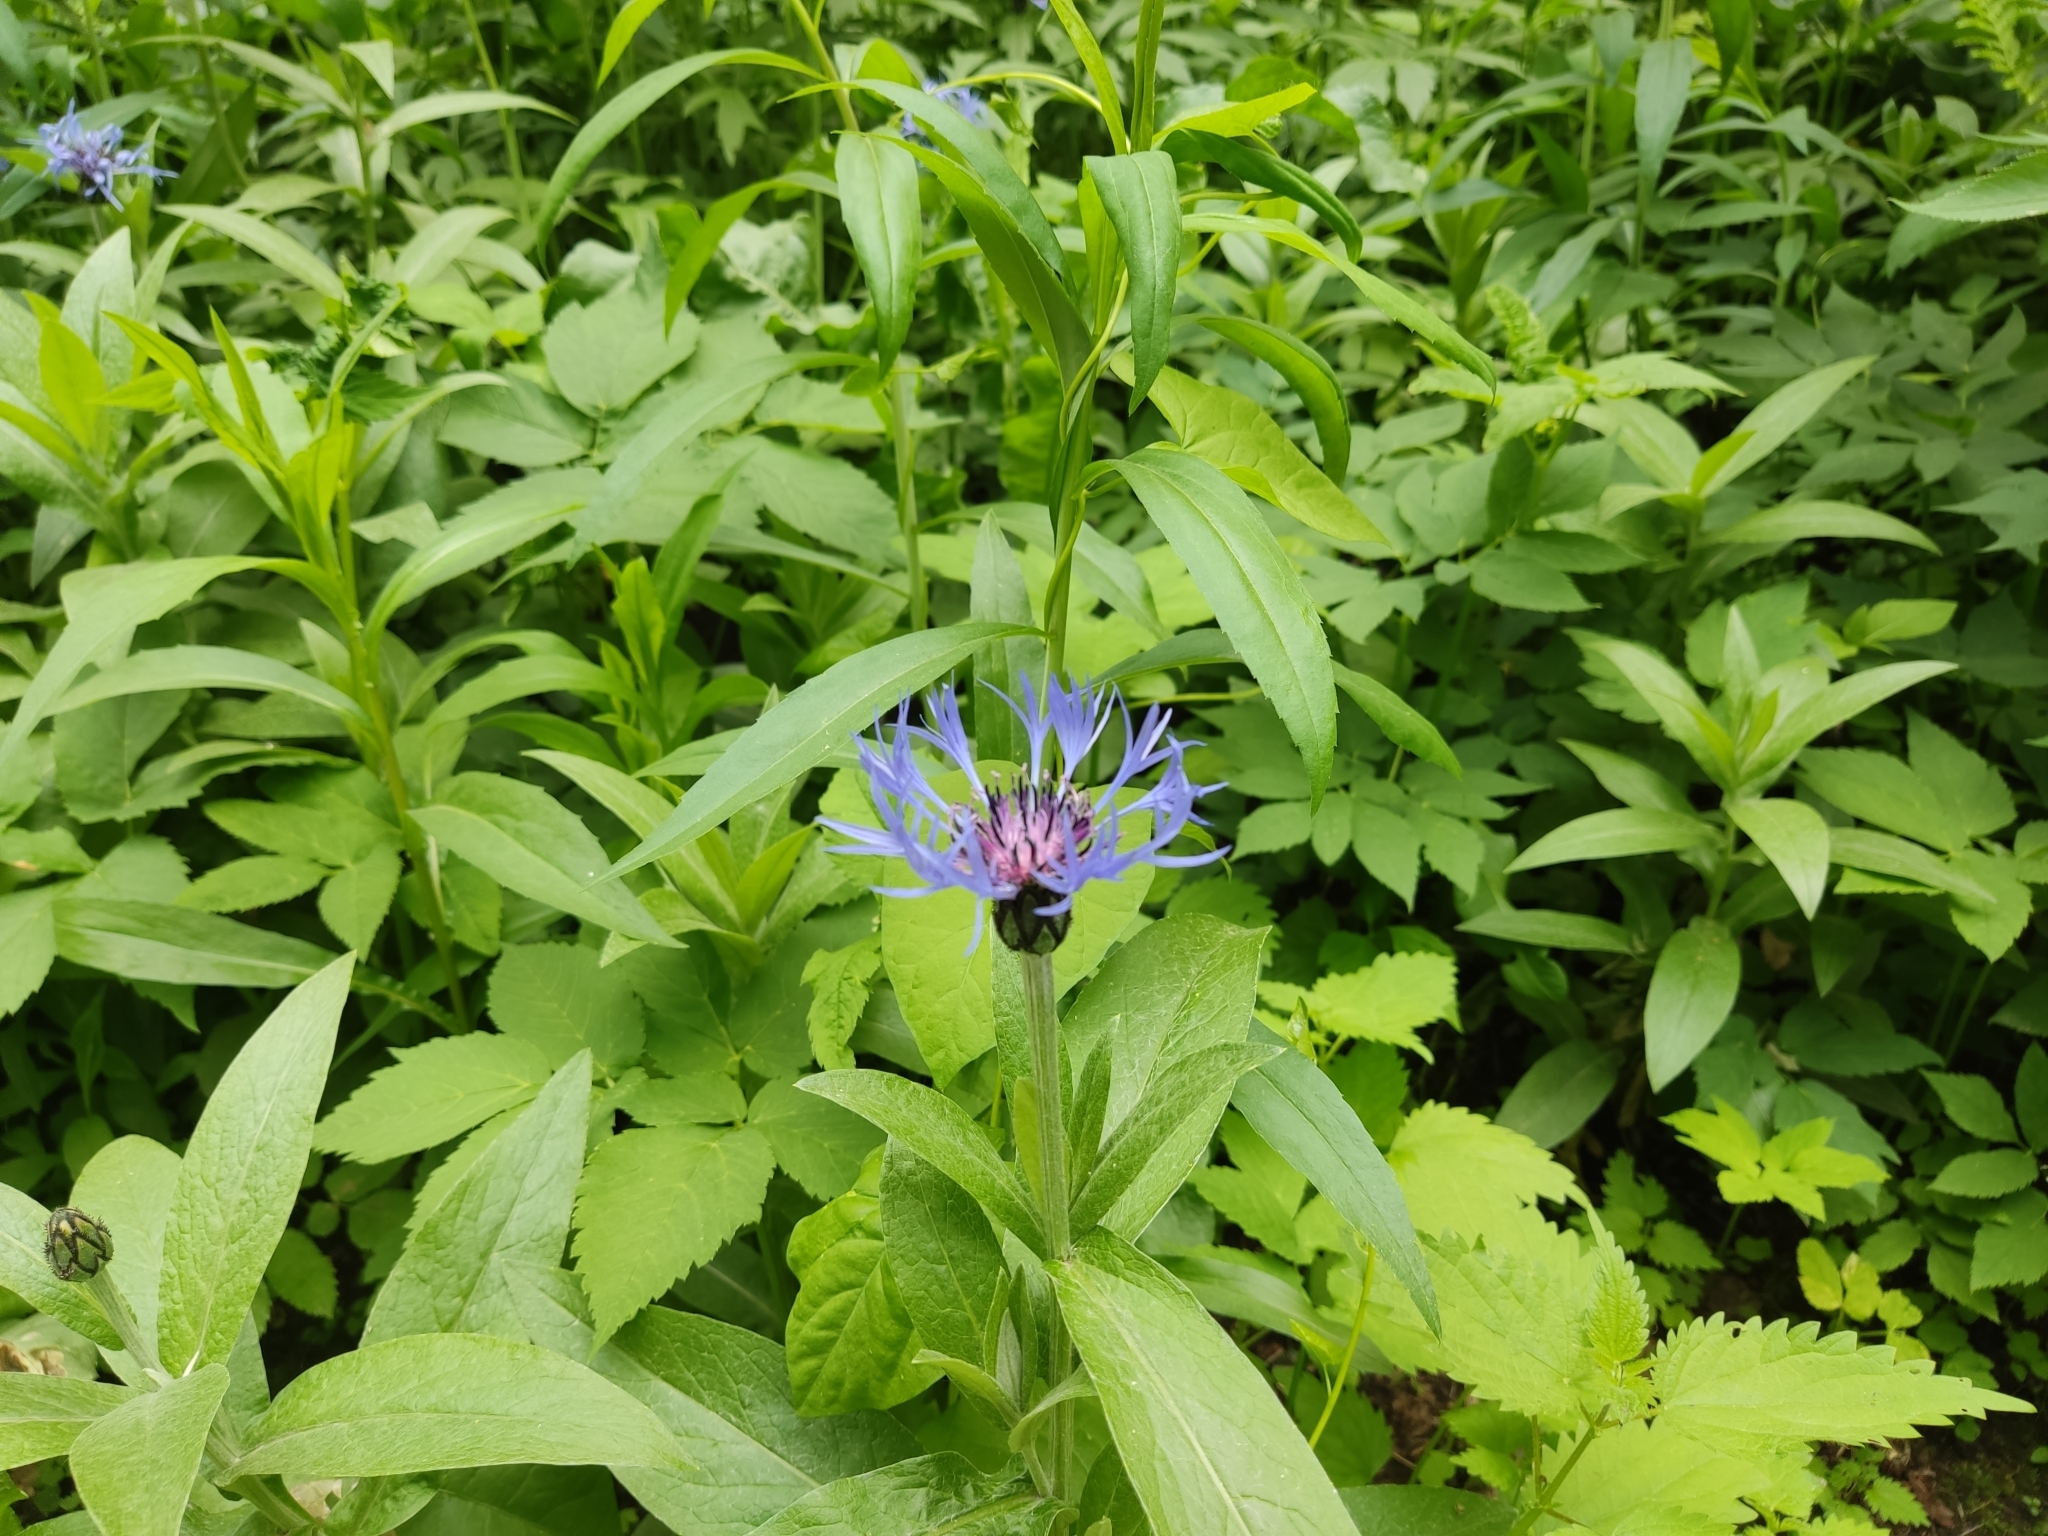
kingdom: Plantae
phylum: Tracheophyta
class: Magnoliopsida
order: Asterales
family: Asteraceae
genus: Centaurea
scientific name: Centaurea montana
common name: Perennial cornflower
